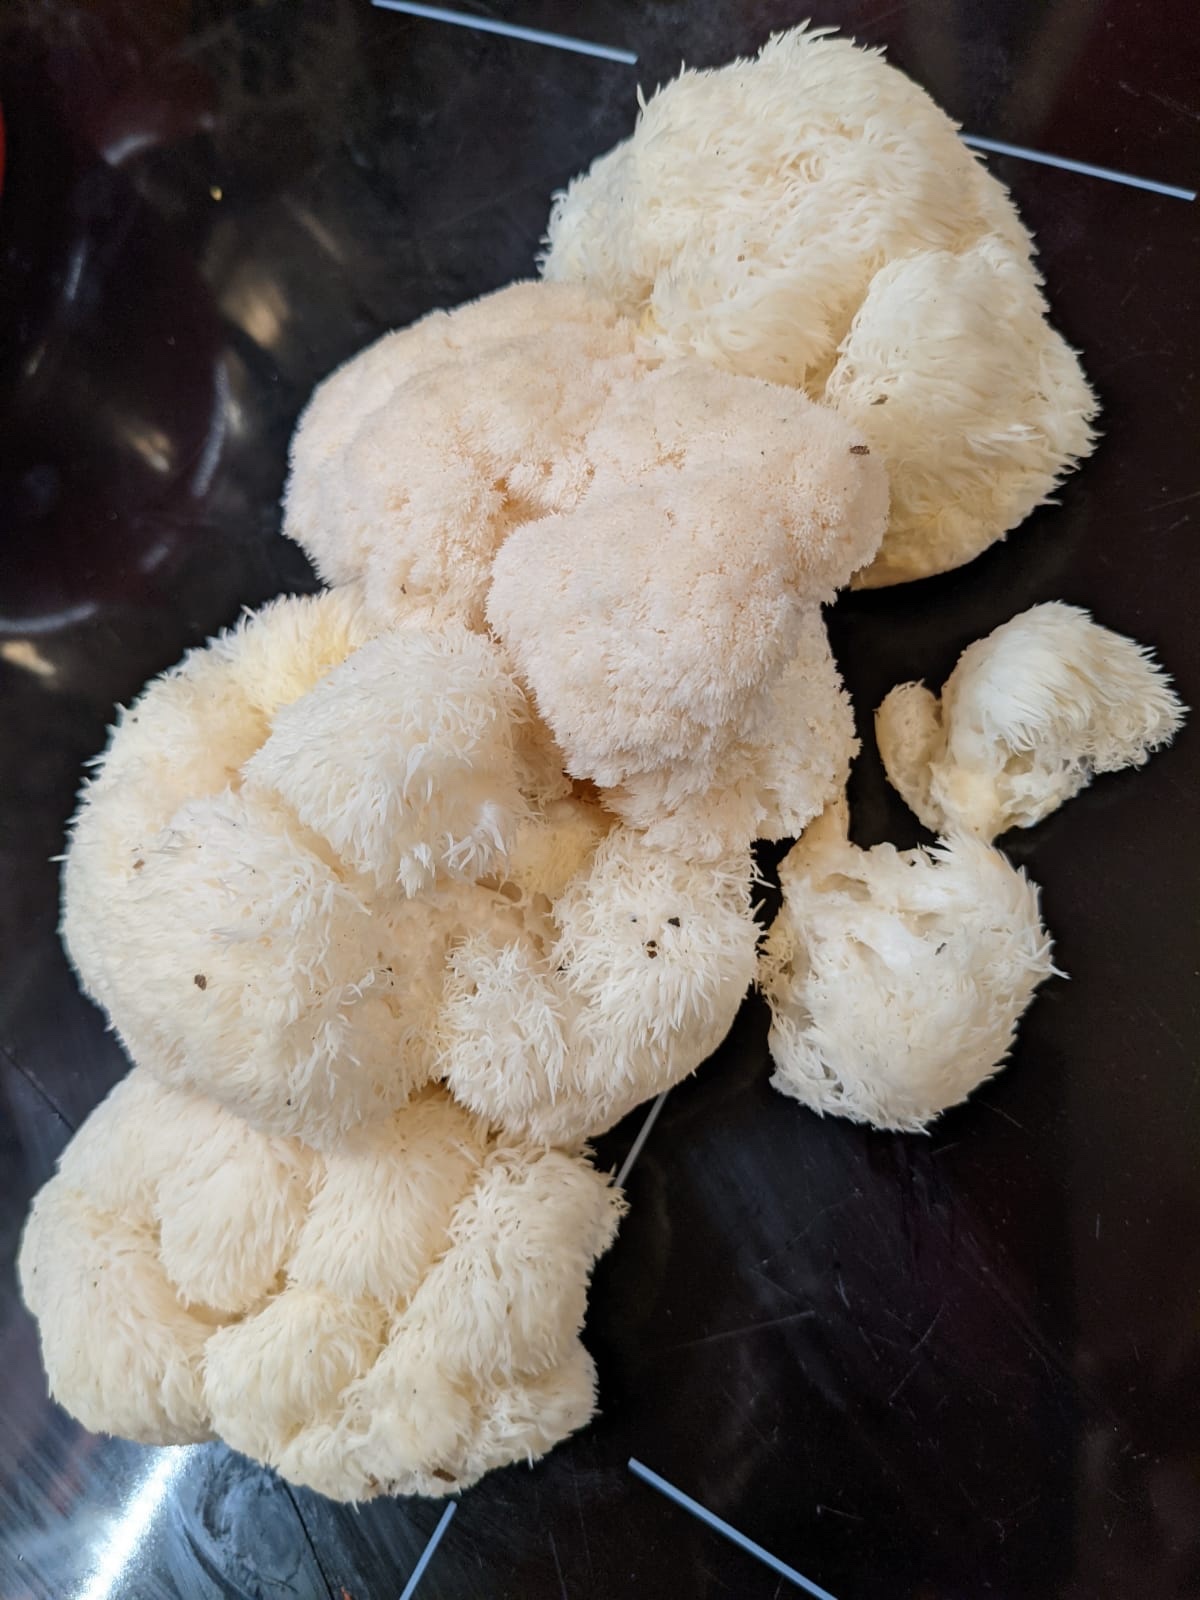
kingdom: Fungi
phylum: Basidiomycota
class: Agaricomycetes
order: Russulales
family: Hericiaceae
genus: Hericium
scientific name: Hericium erinaceus
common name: Bearded tooth
